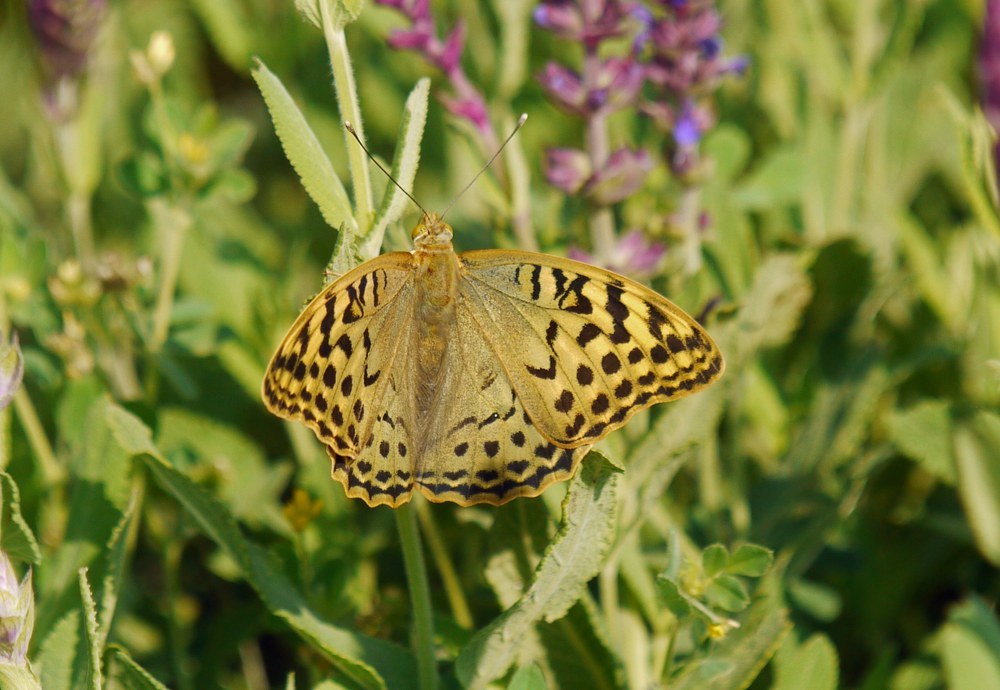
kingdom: Animalia
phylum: Arthropoda
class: Insecta
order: Lepidoptera
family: Nymphalidae
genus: Damora
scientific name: Damora pandora
